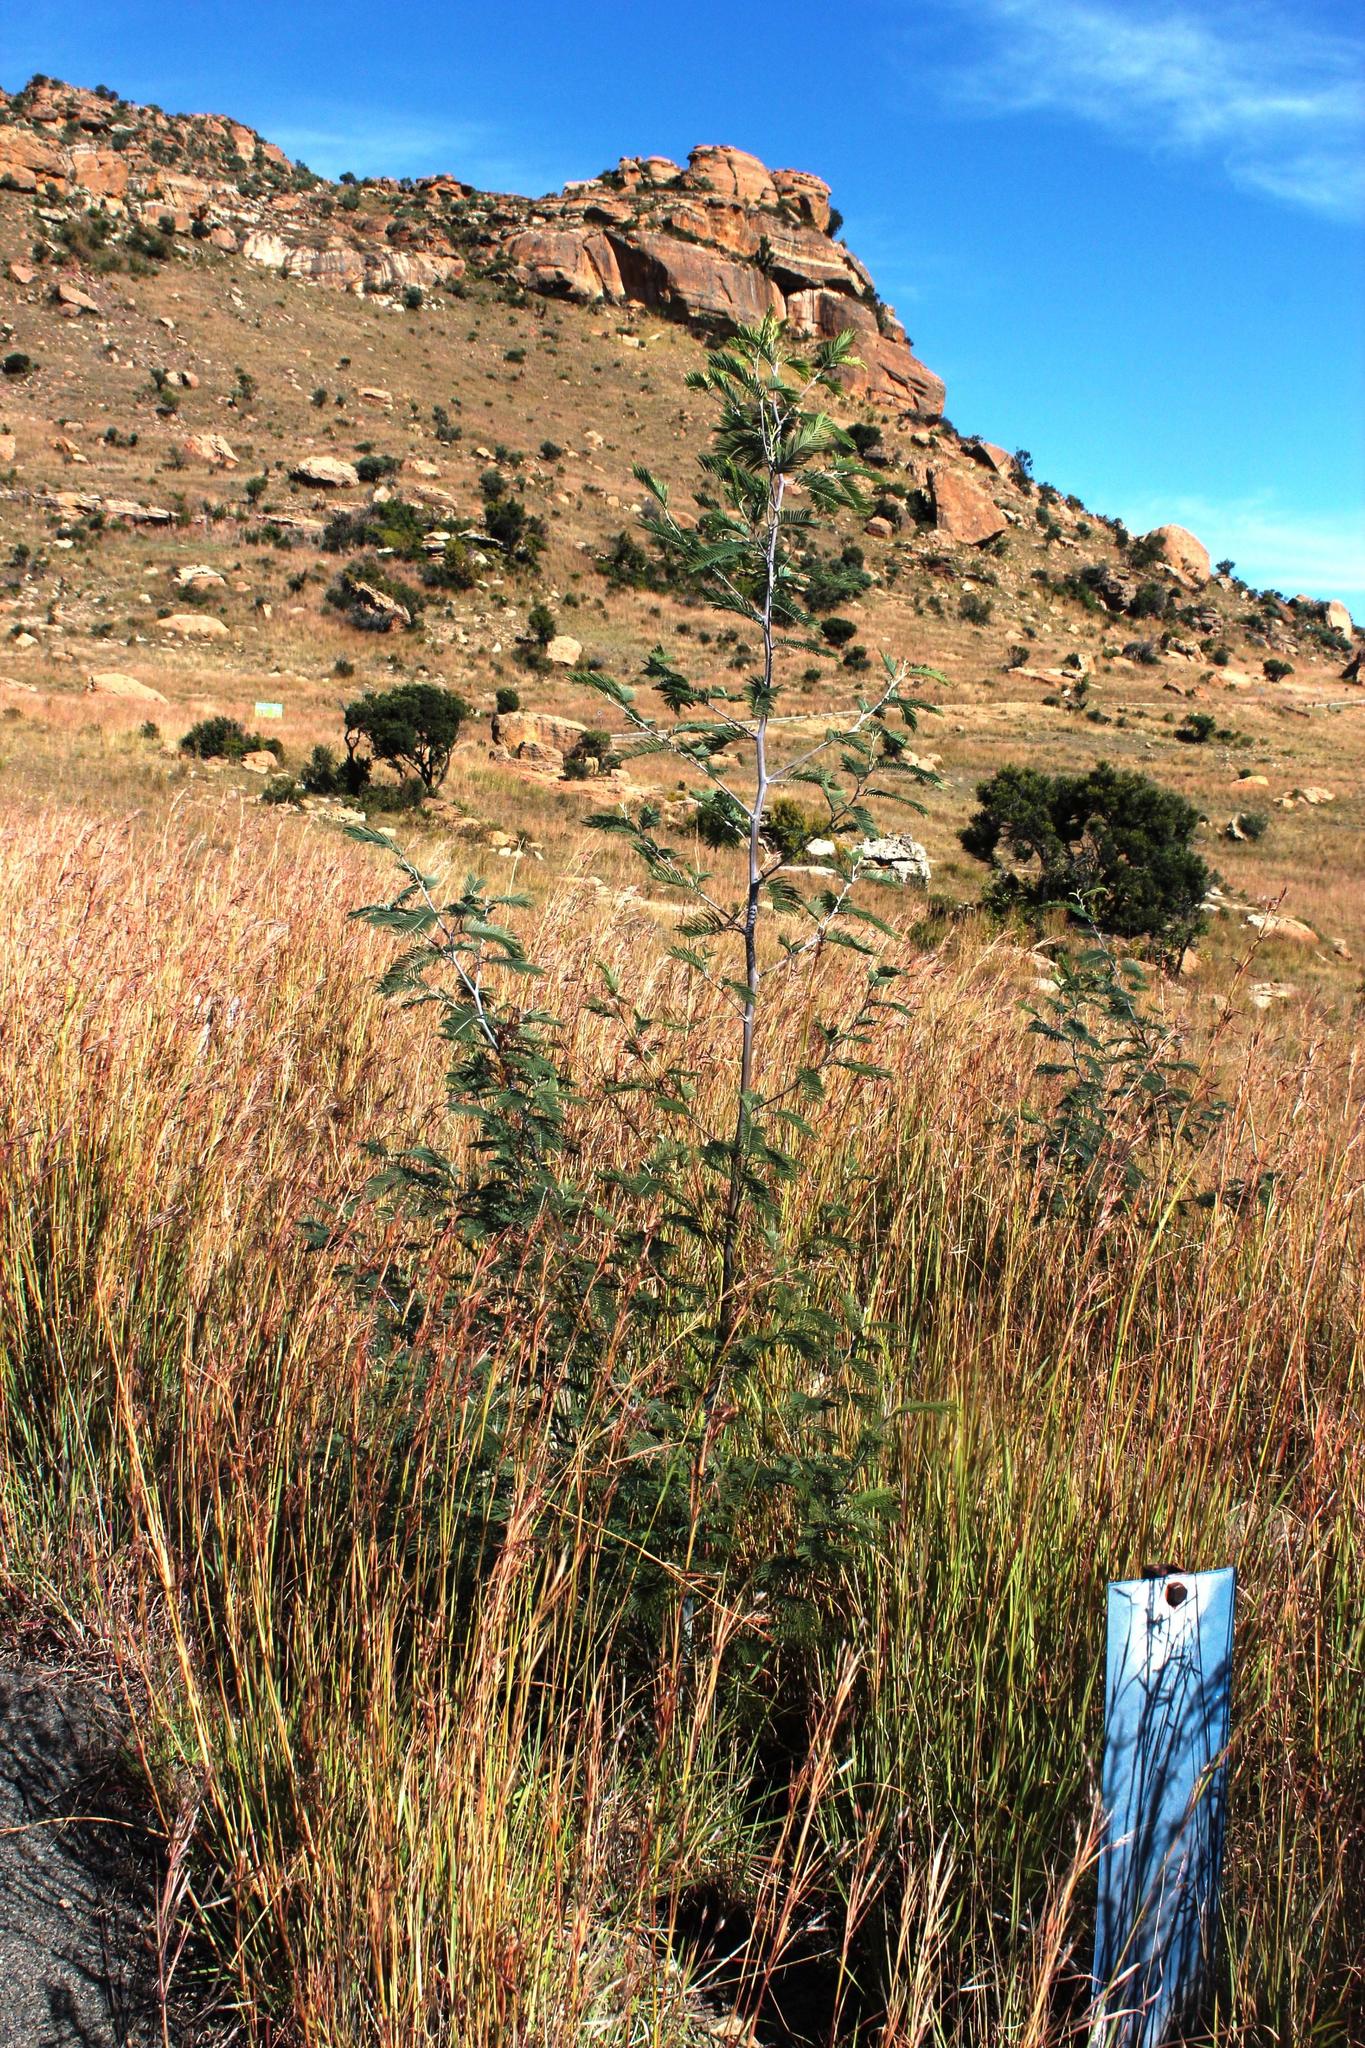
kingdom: Plantae
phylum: Tracheophyta
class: Magnoliopsida
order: Fabales
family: Fabaceae
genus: Acacia
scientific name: Acacia dealbata
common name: Silver wattle
